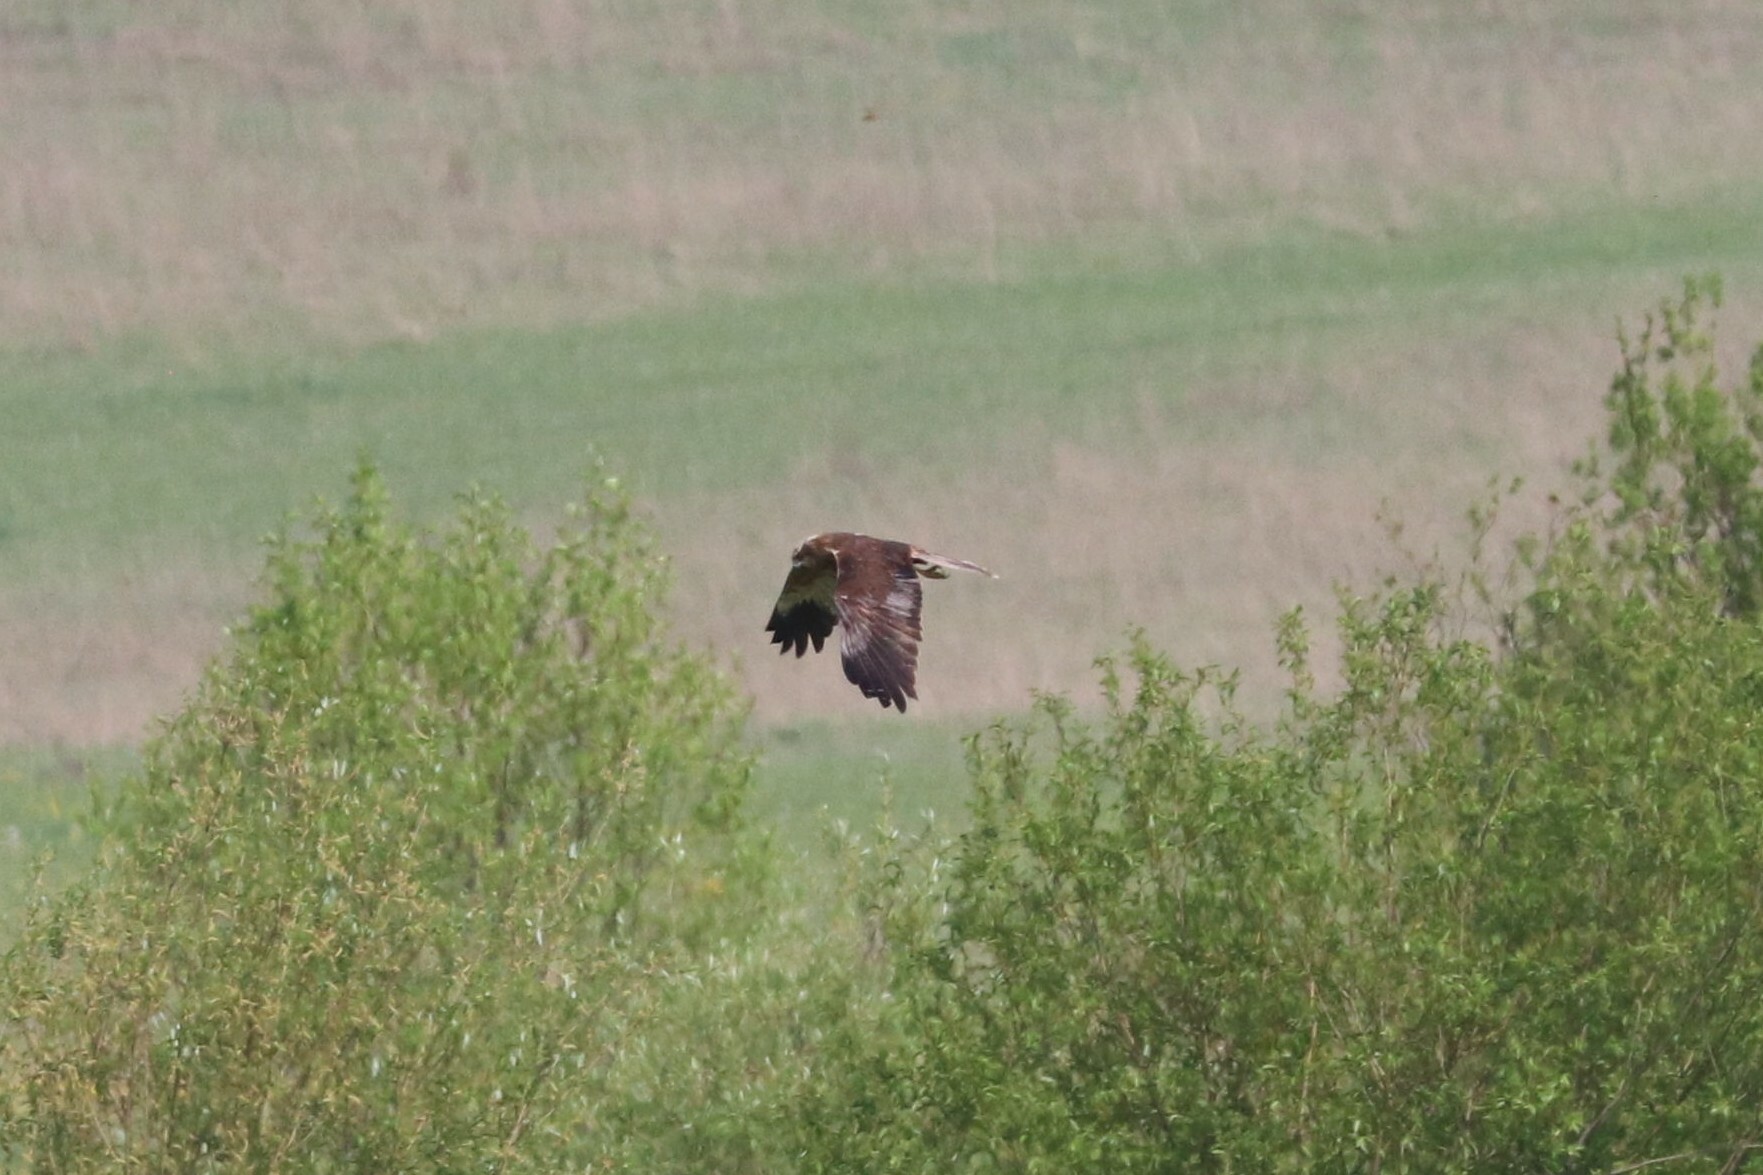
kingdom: Animalia
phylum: Chordata
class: Aves
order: Accipitriformes
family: Accipitridae
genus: Circus
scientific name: Circus aeruginosus
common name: Western marsh harrier
